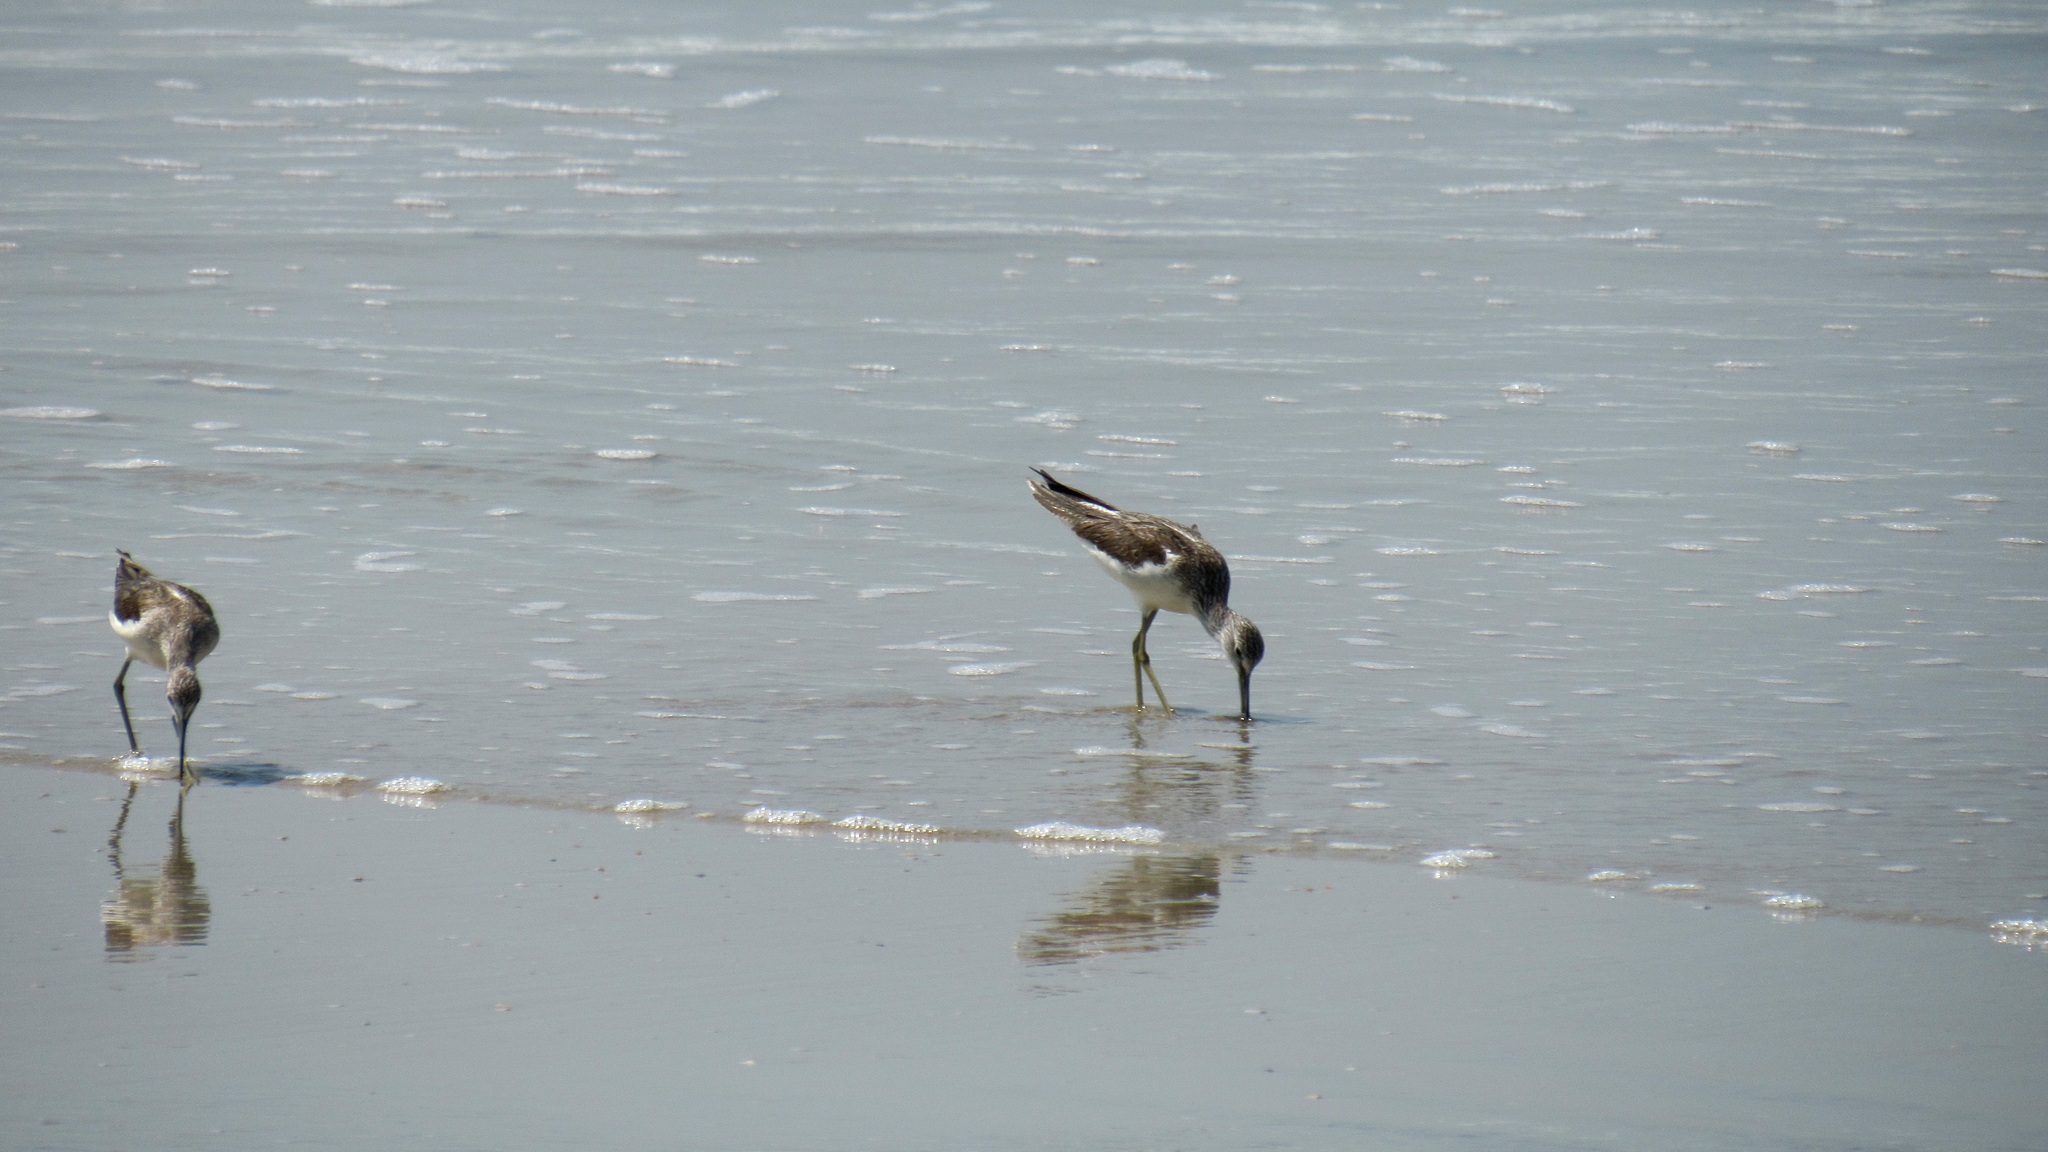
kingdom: Animalia
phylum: Chordata
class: Aves
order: Charadriiformes
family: Scolopacidae
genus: Tringa
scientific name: Tringa nebularia
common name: Common greenshank
